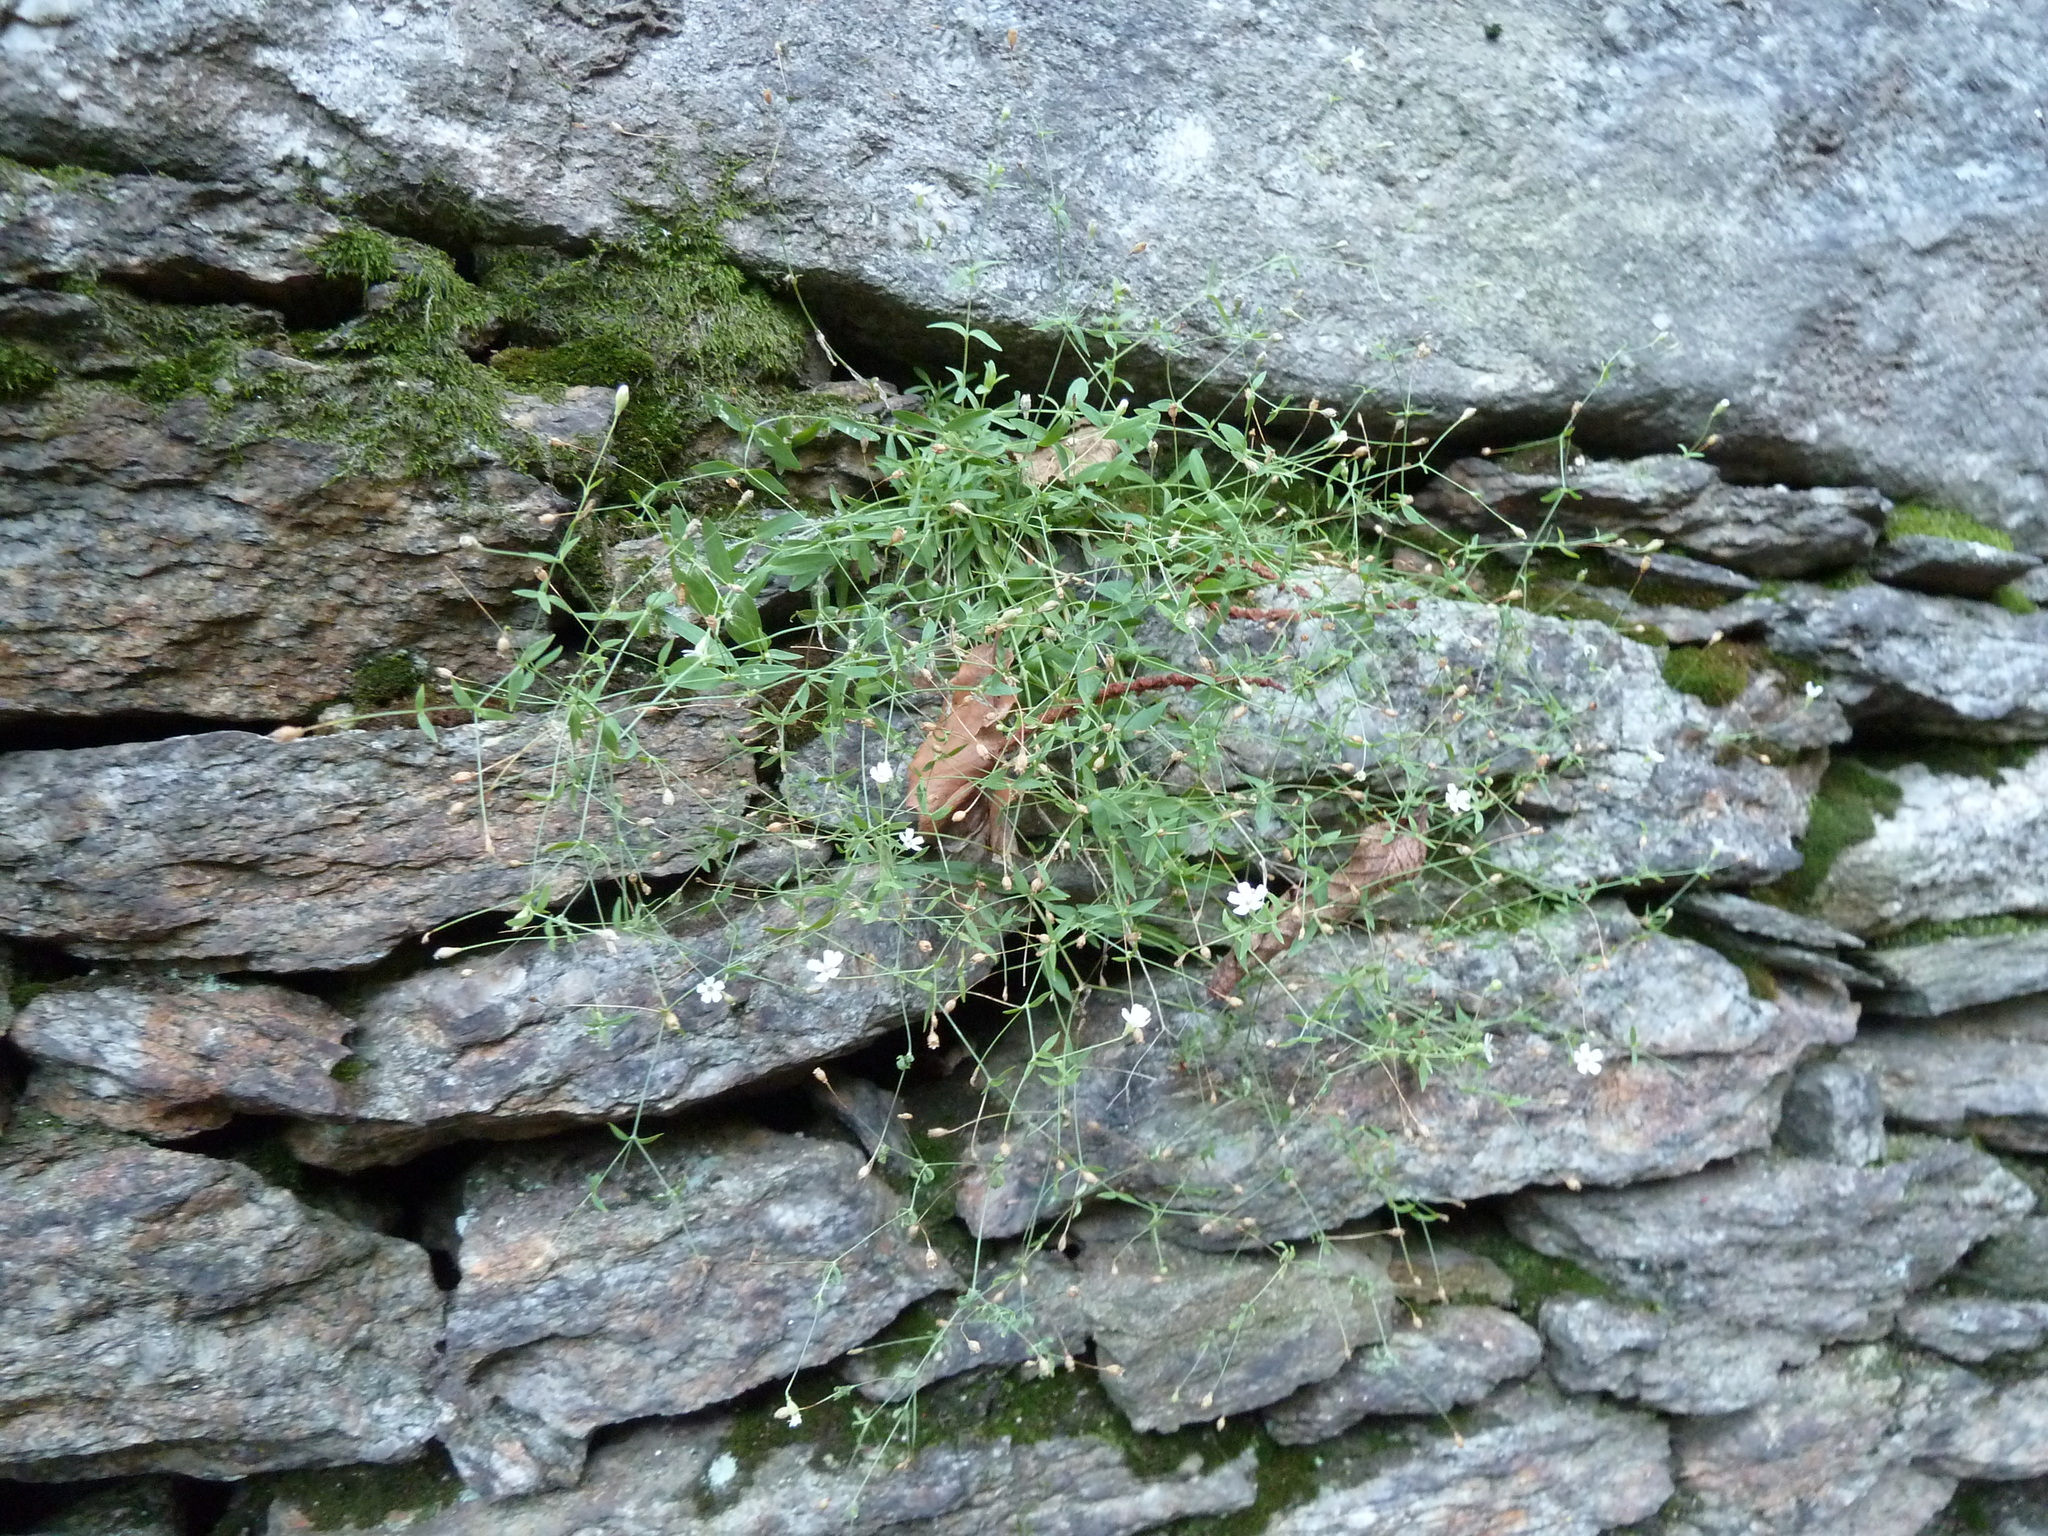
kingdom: Plantae
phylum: Tracheophyta
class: Magnoliopsida
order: Caryophyllales
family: Caryophyllaceae
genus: Atocion
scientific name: Atocion rupestre
